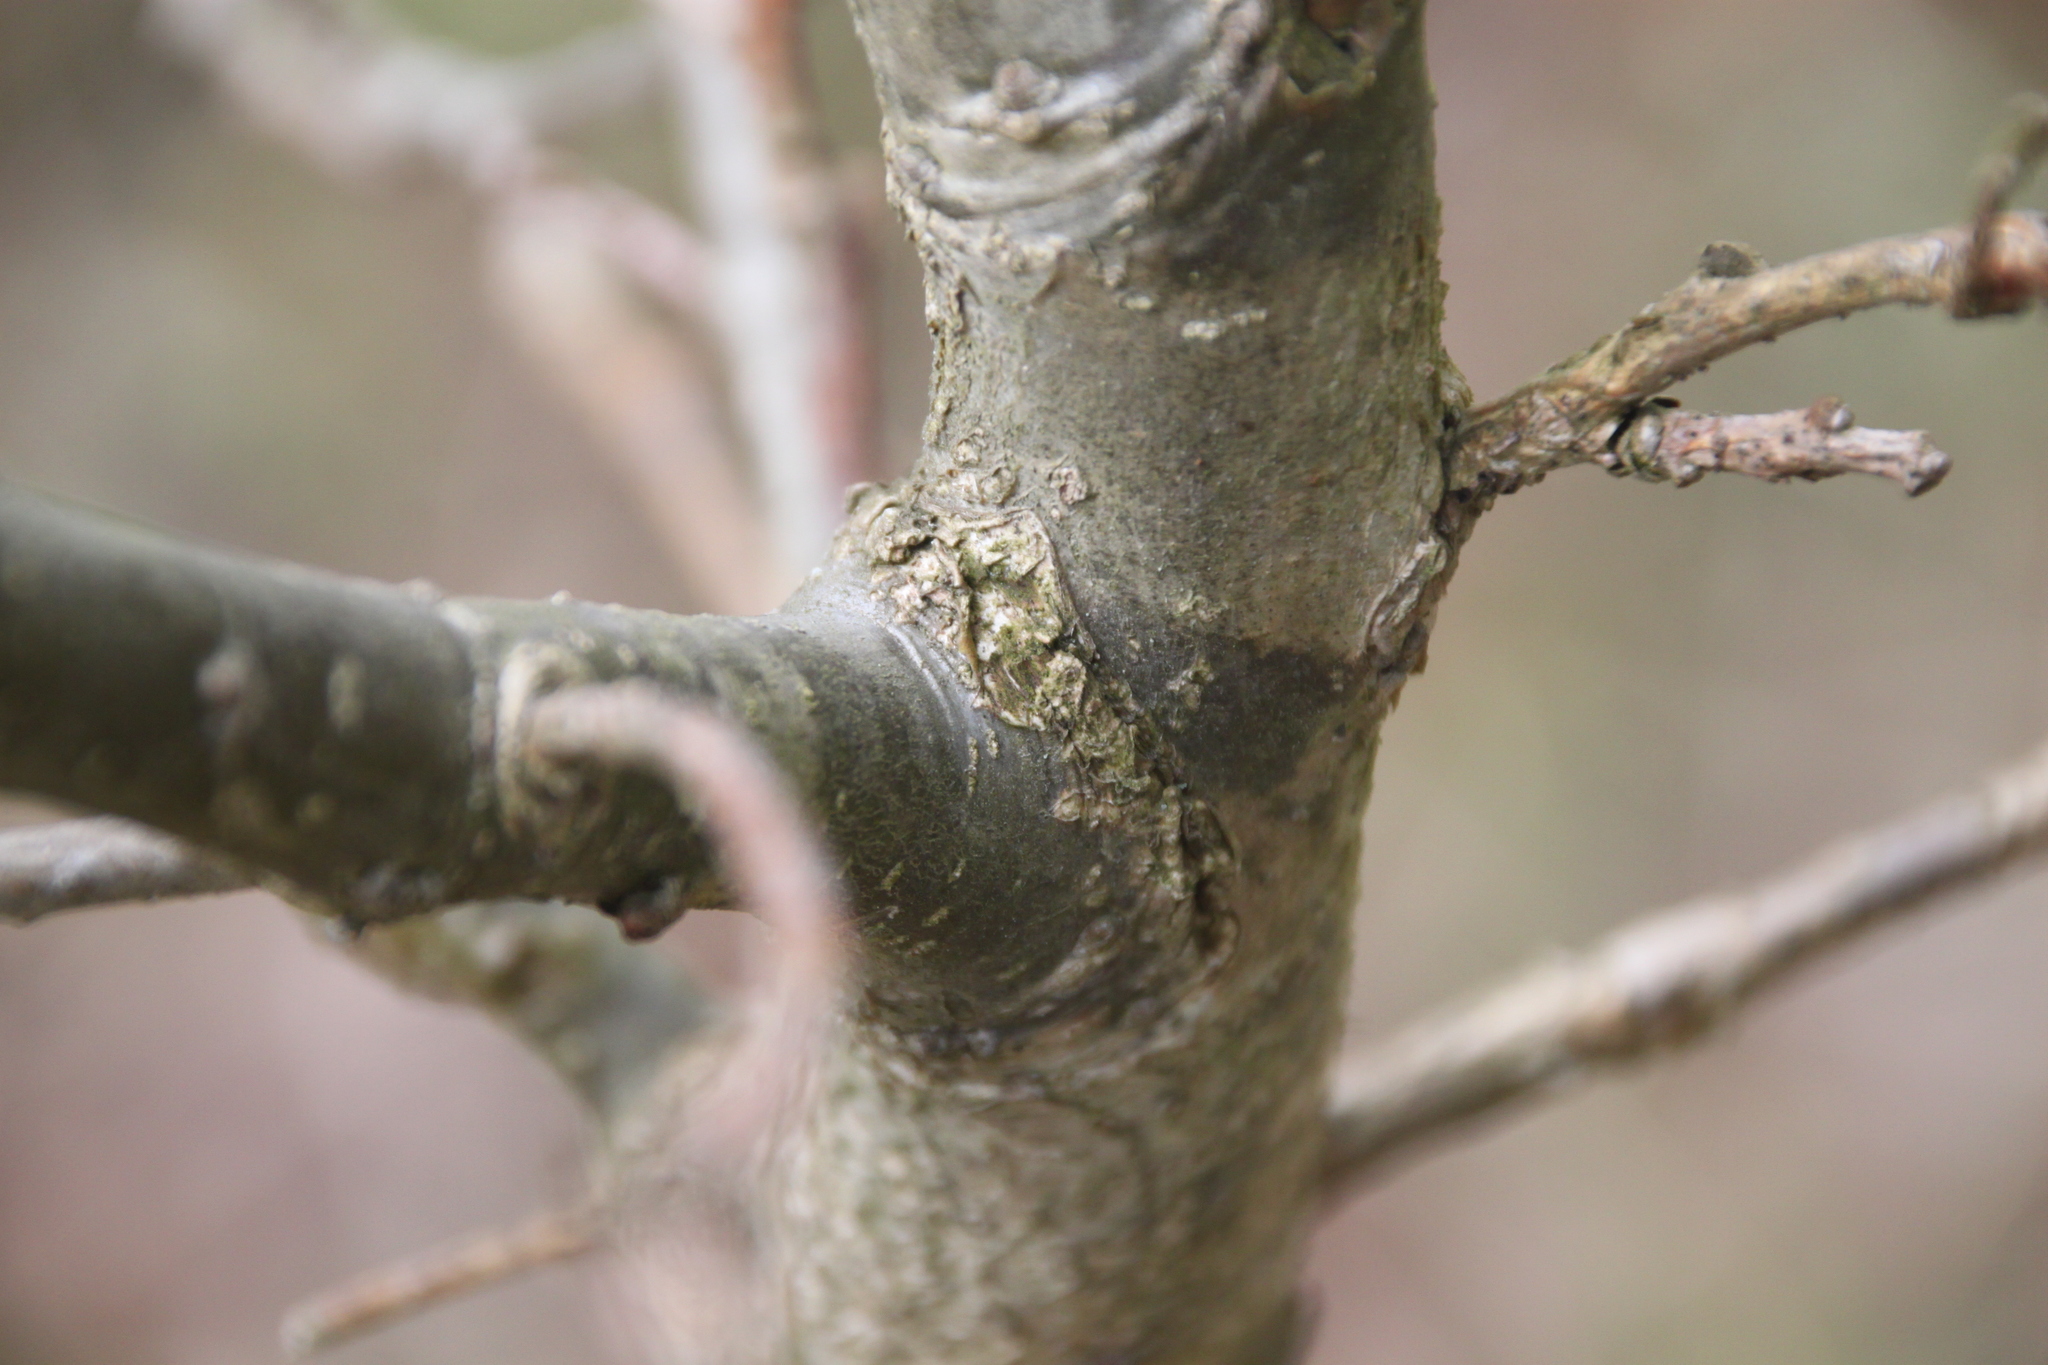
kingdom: Plantae
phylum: Tracheophyta
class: Magnoliopsida
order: Fagales
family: Fagaceae
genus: Quercus
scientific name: Quercus robur
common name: Pedunculate oak
